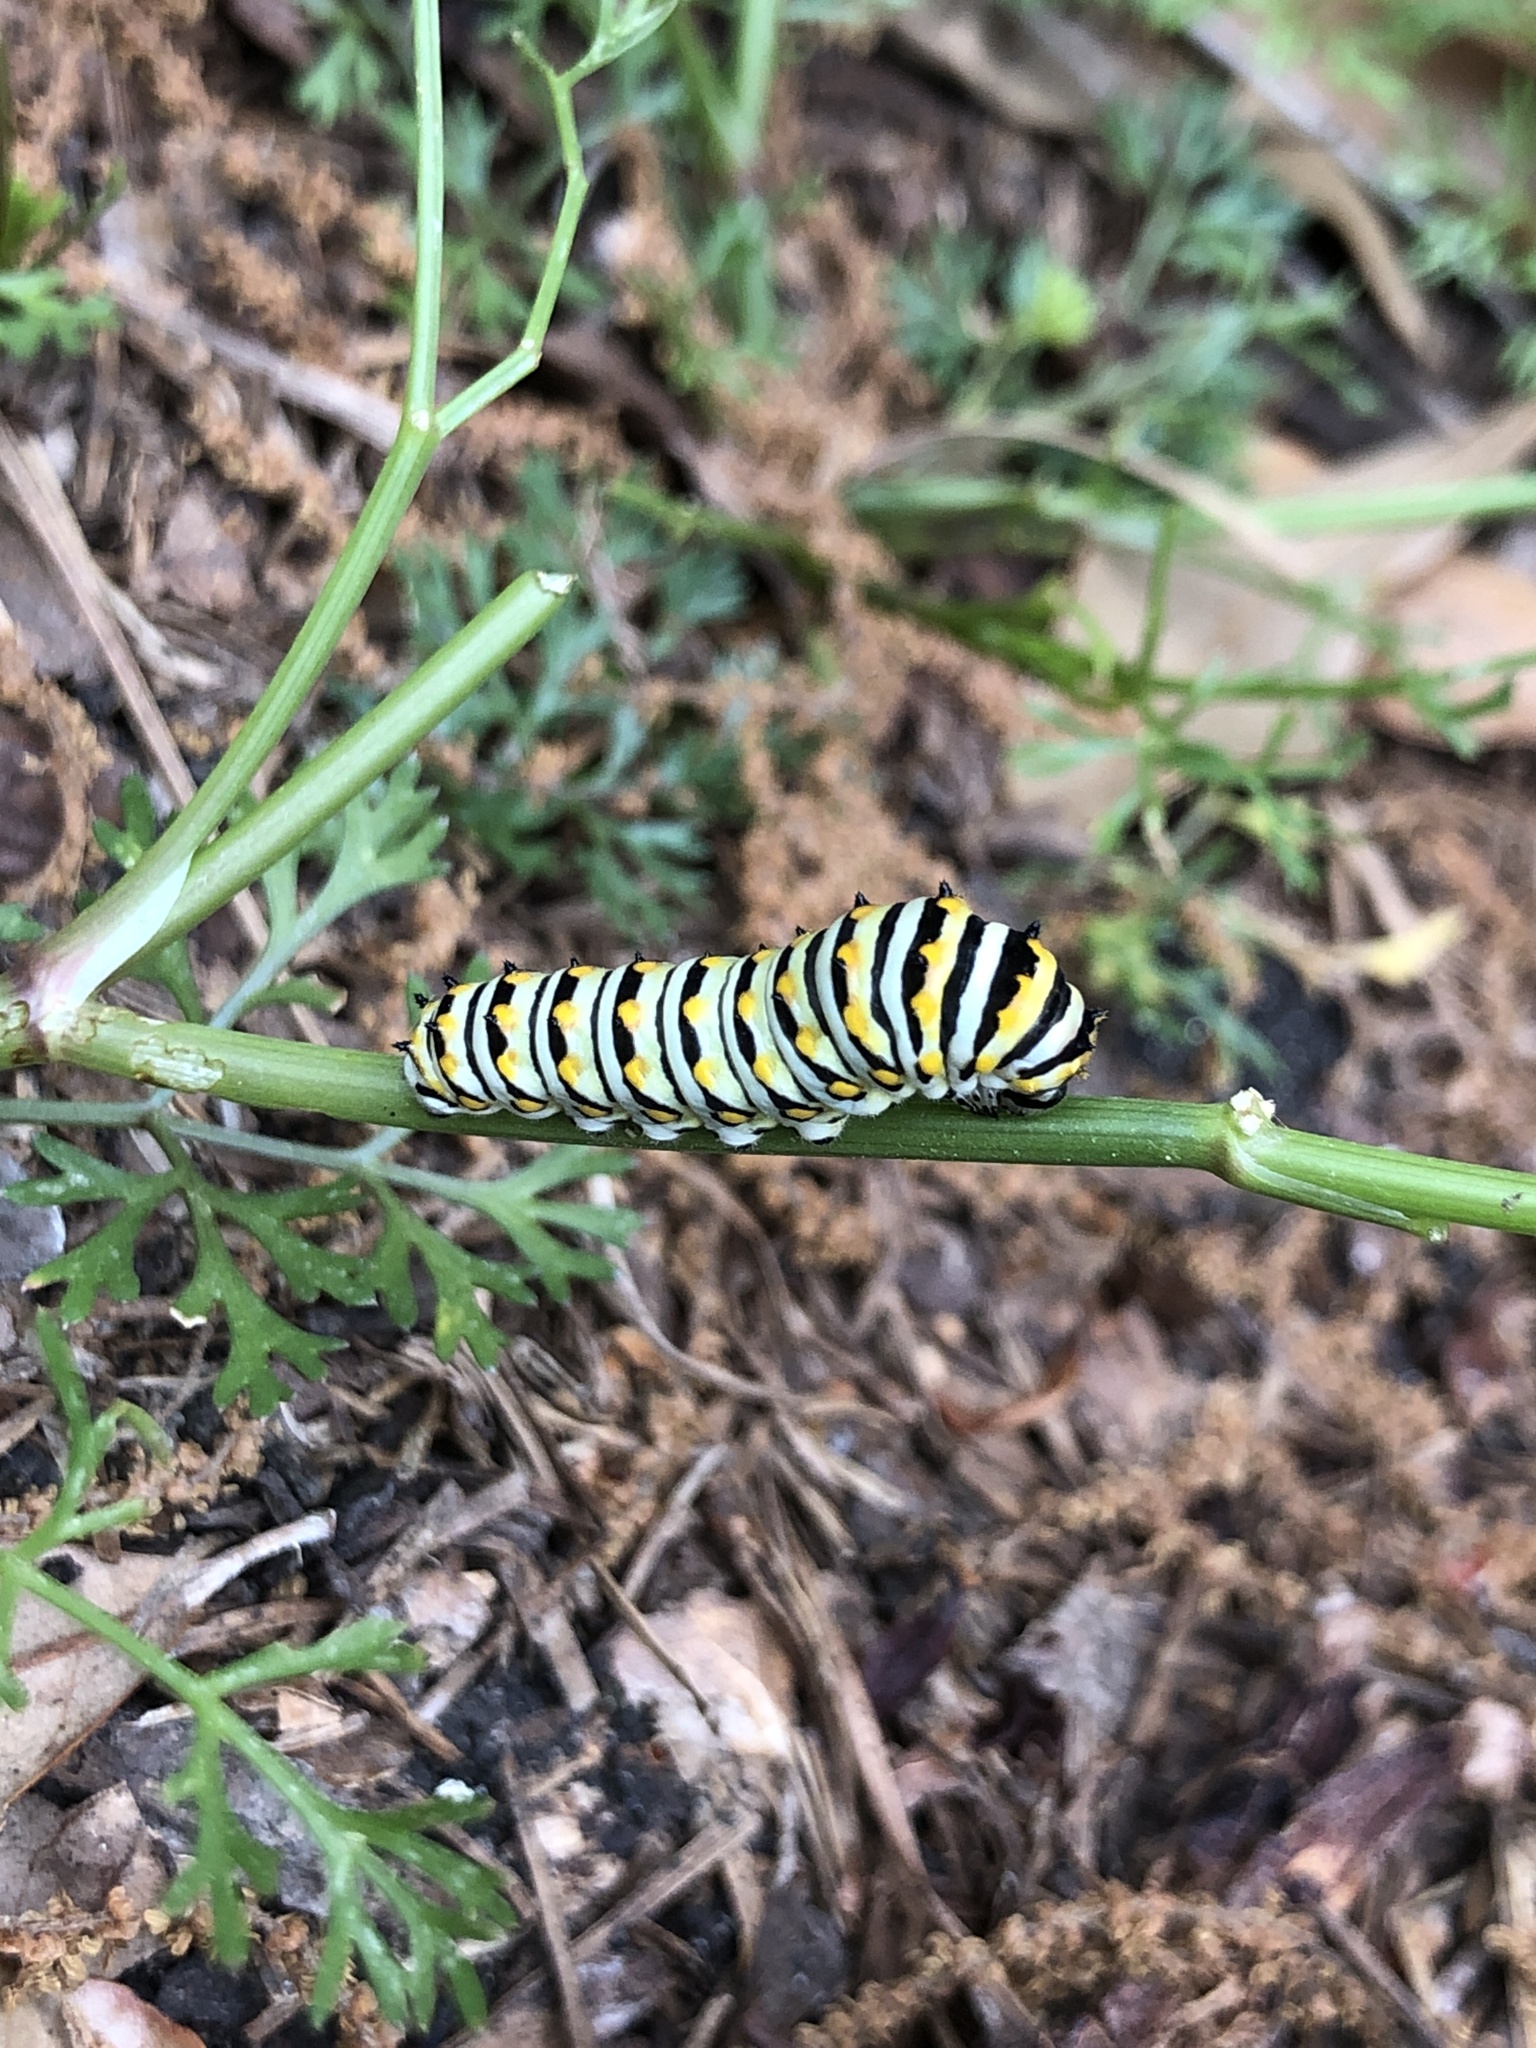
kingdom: Animalia
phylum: Arthropoda
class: Insecta
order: Lepidoptera
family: Papilionidae
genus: Papilio
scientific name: Papilio polyxenes
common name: Black swallowtail
